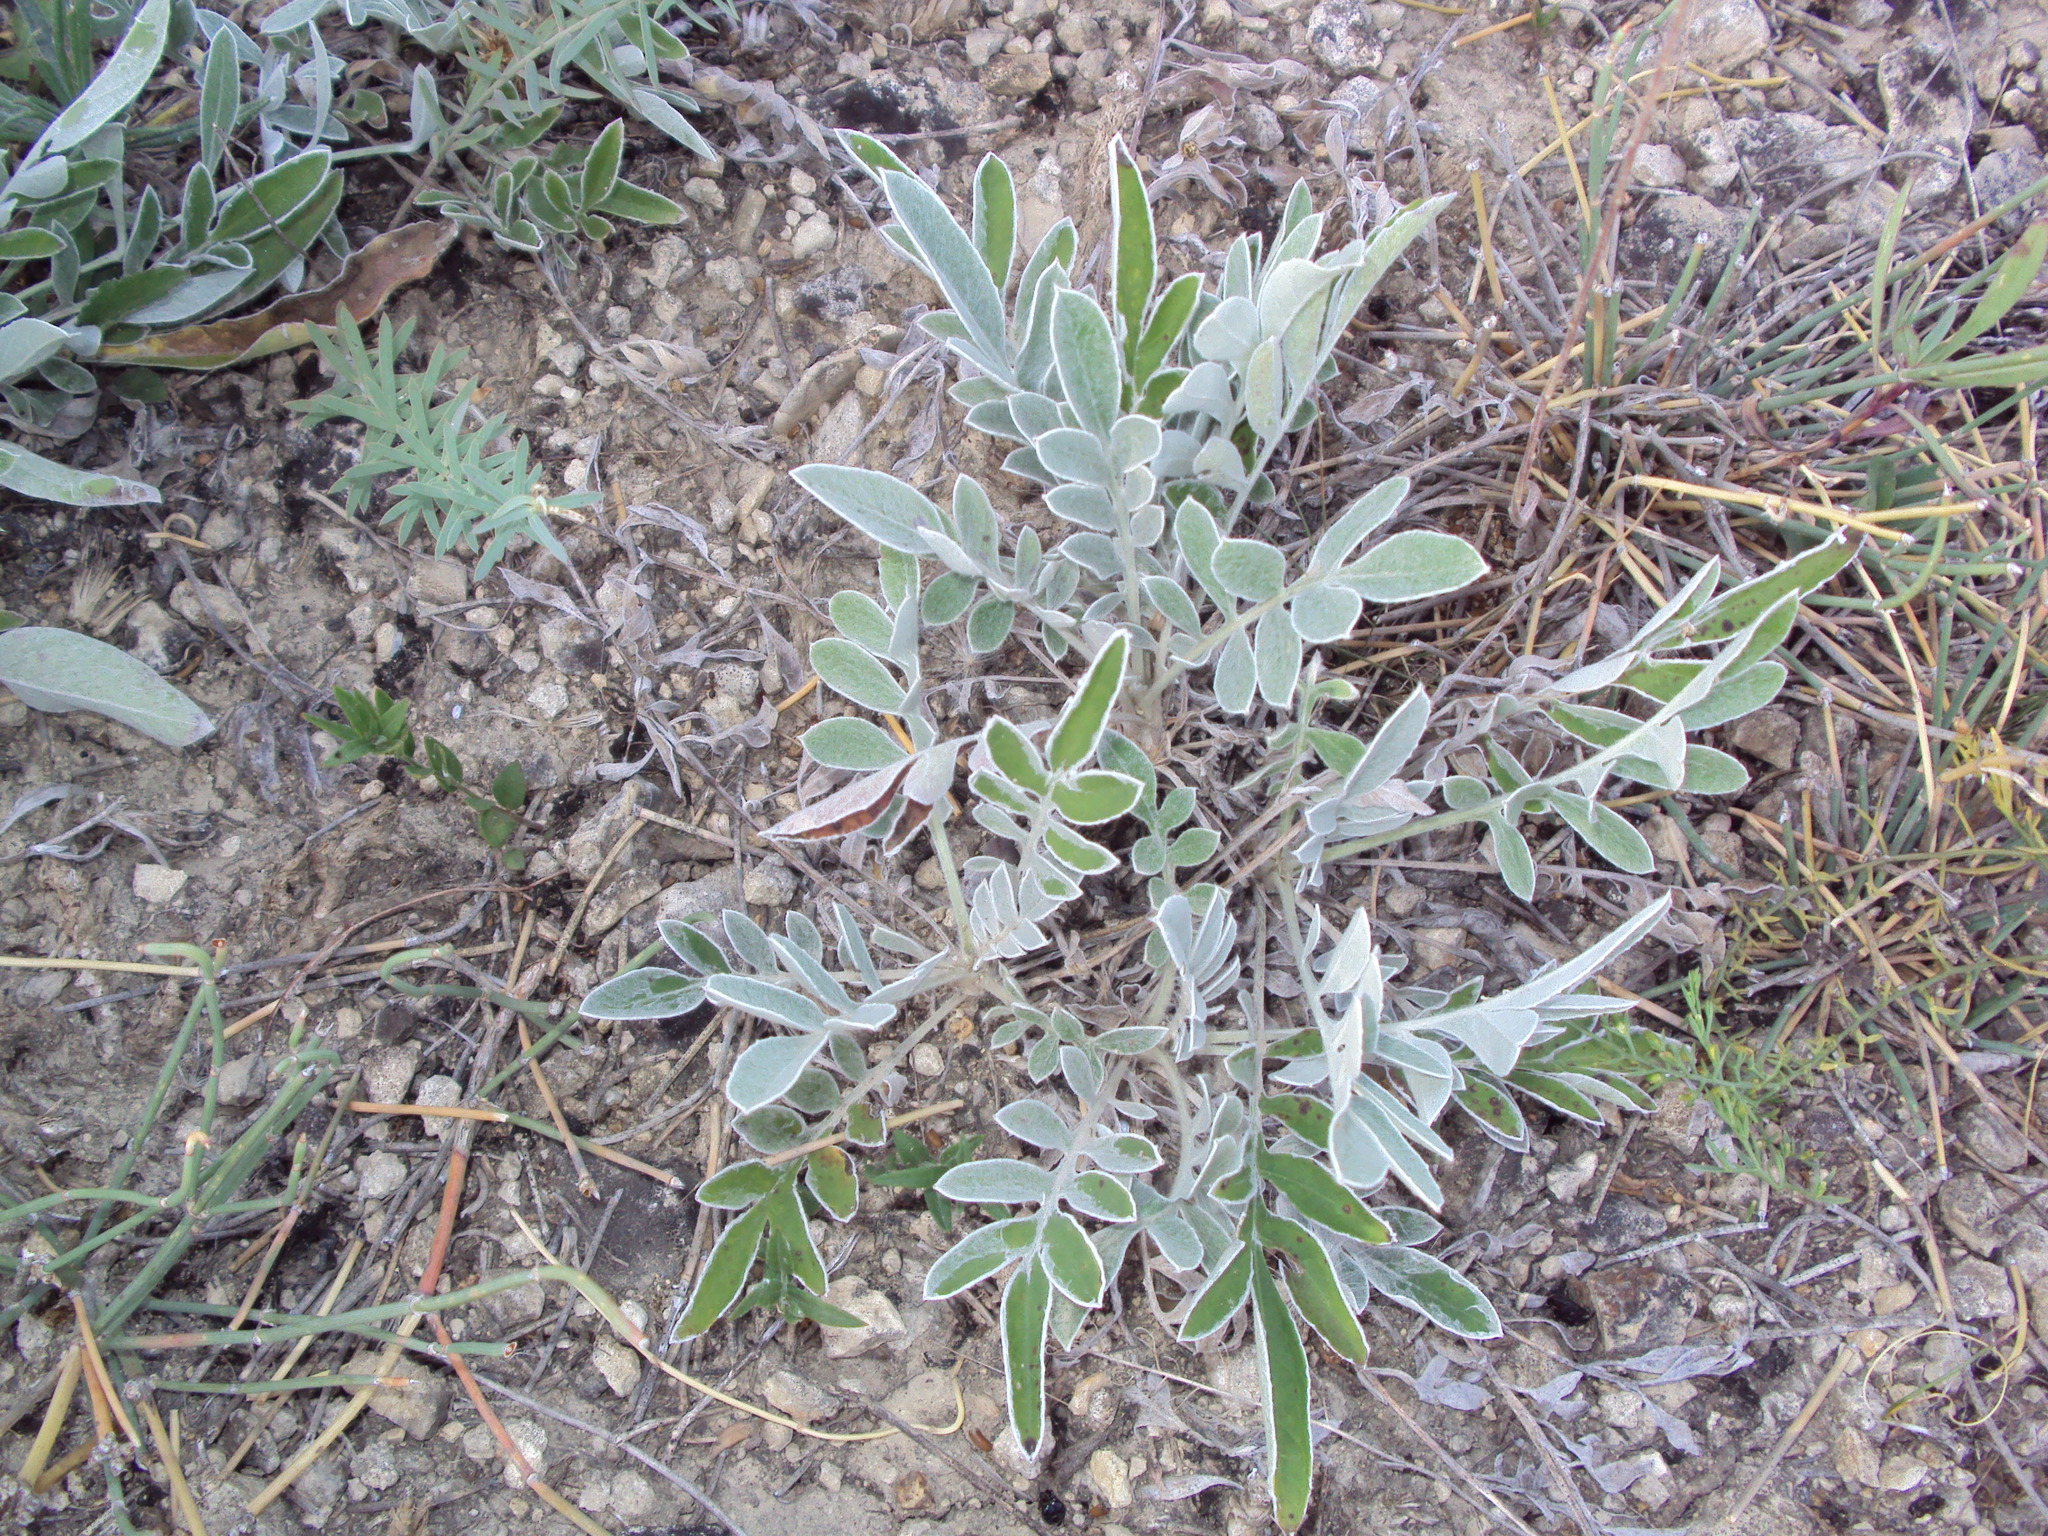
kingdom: Plantae
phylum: Tracheophyta
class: Magnoliopsida
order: Asterales
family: Asteraceae
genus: Psephellus
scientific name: Psephellus marschallianus
